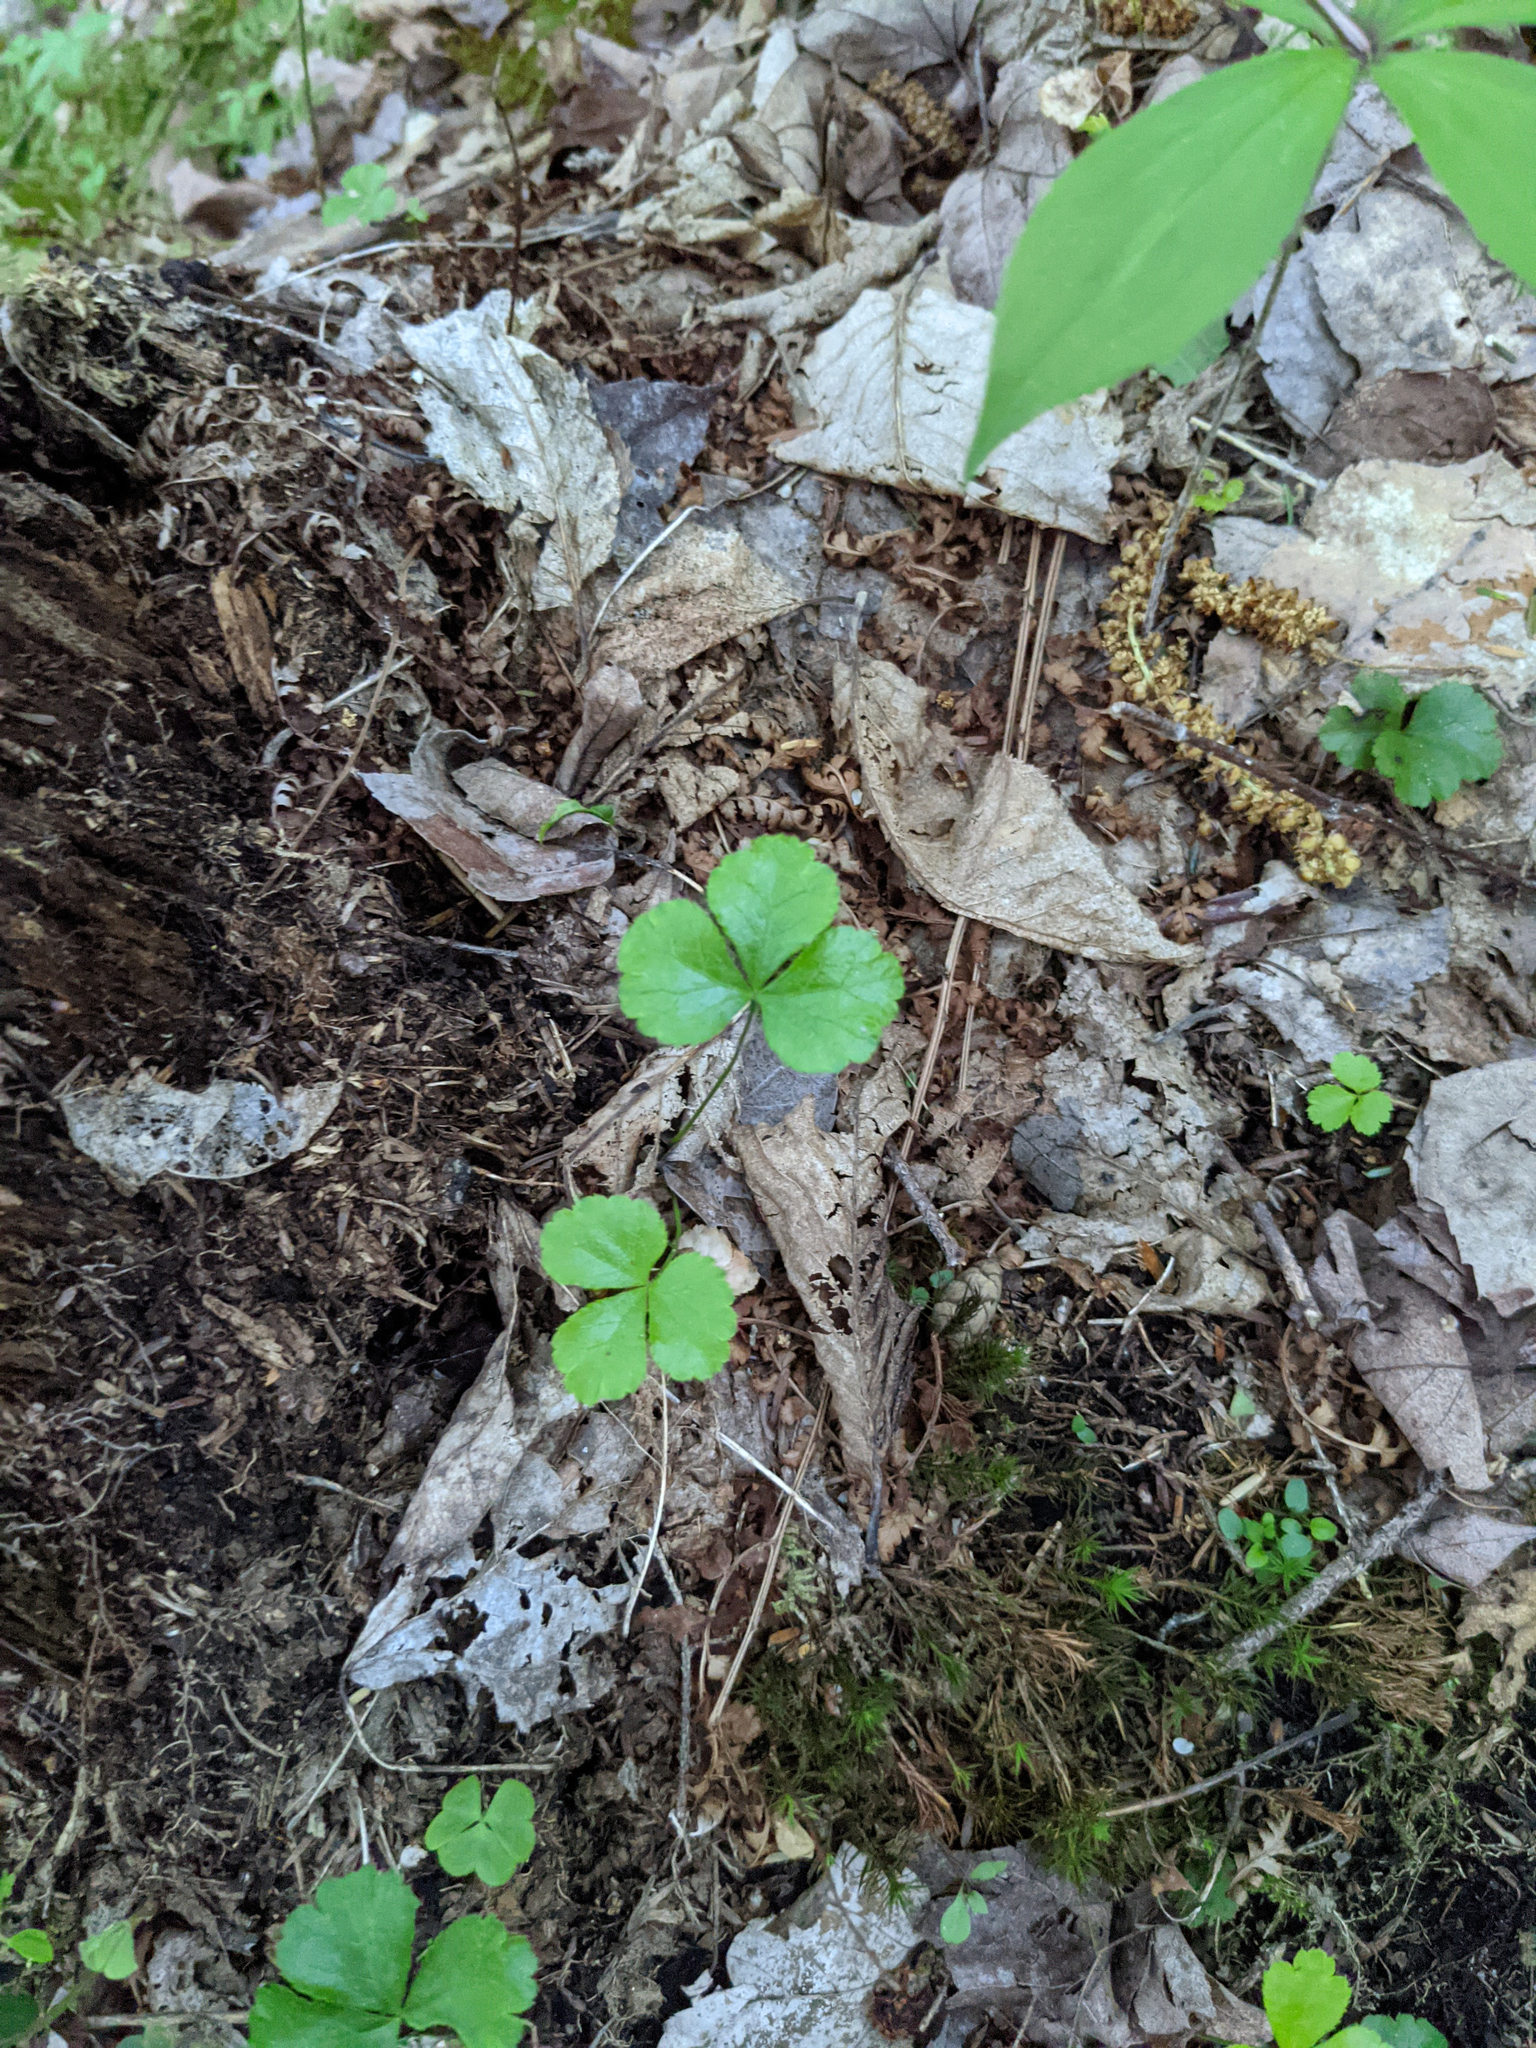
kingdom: Plantae
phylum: Tracheophyta
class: Magnoliopsida
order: Ranunculales
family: Ranunculaceae
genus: Coptis
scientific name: Coptis trifolia
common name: Canker-root
